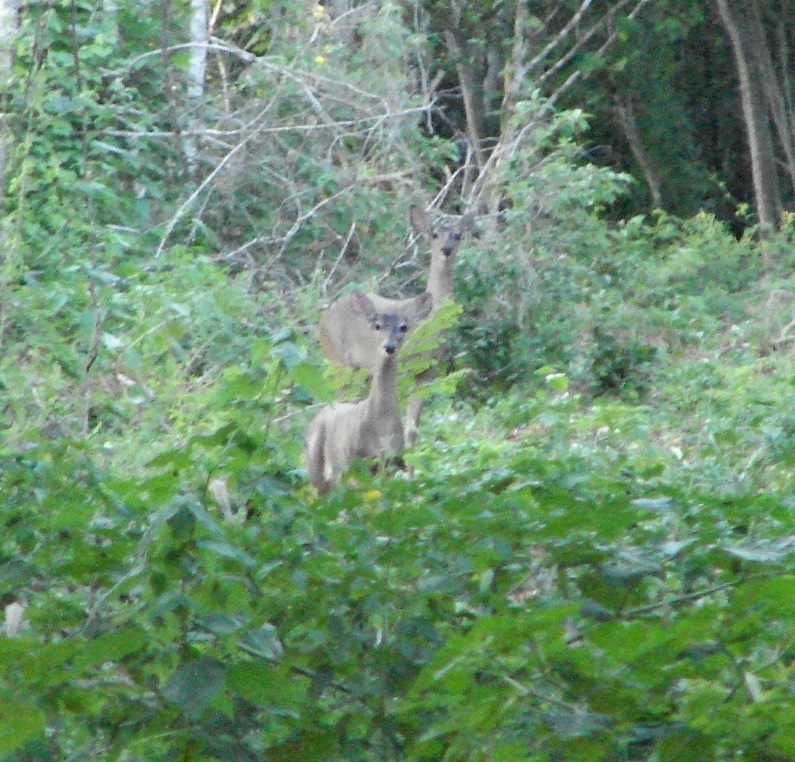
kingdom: Animalia
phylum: Chordata
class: Mammalia
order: Artiodactyla
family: Cervidae
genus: Odocoileus
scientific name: Odocoileus virginianus
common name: White-tailed deer
